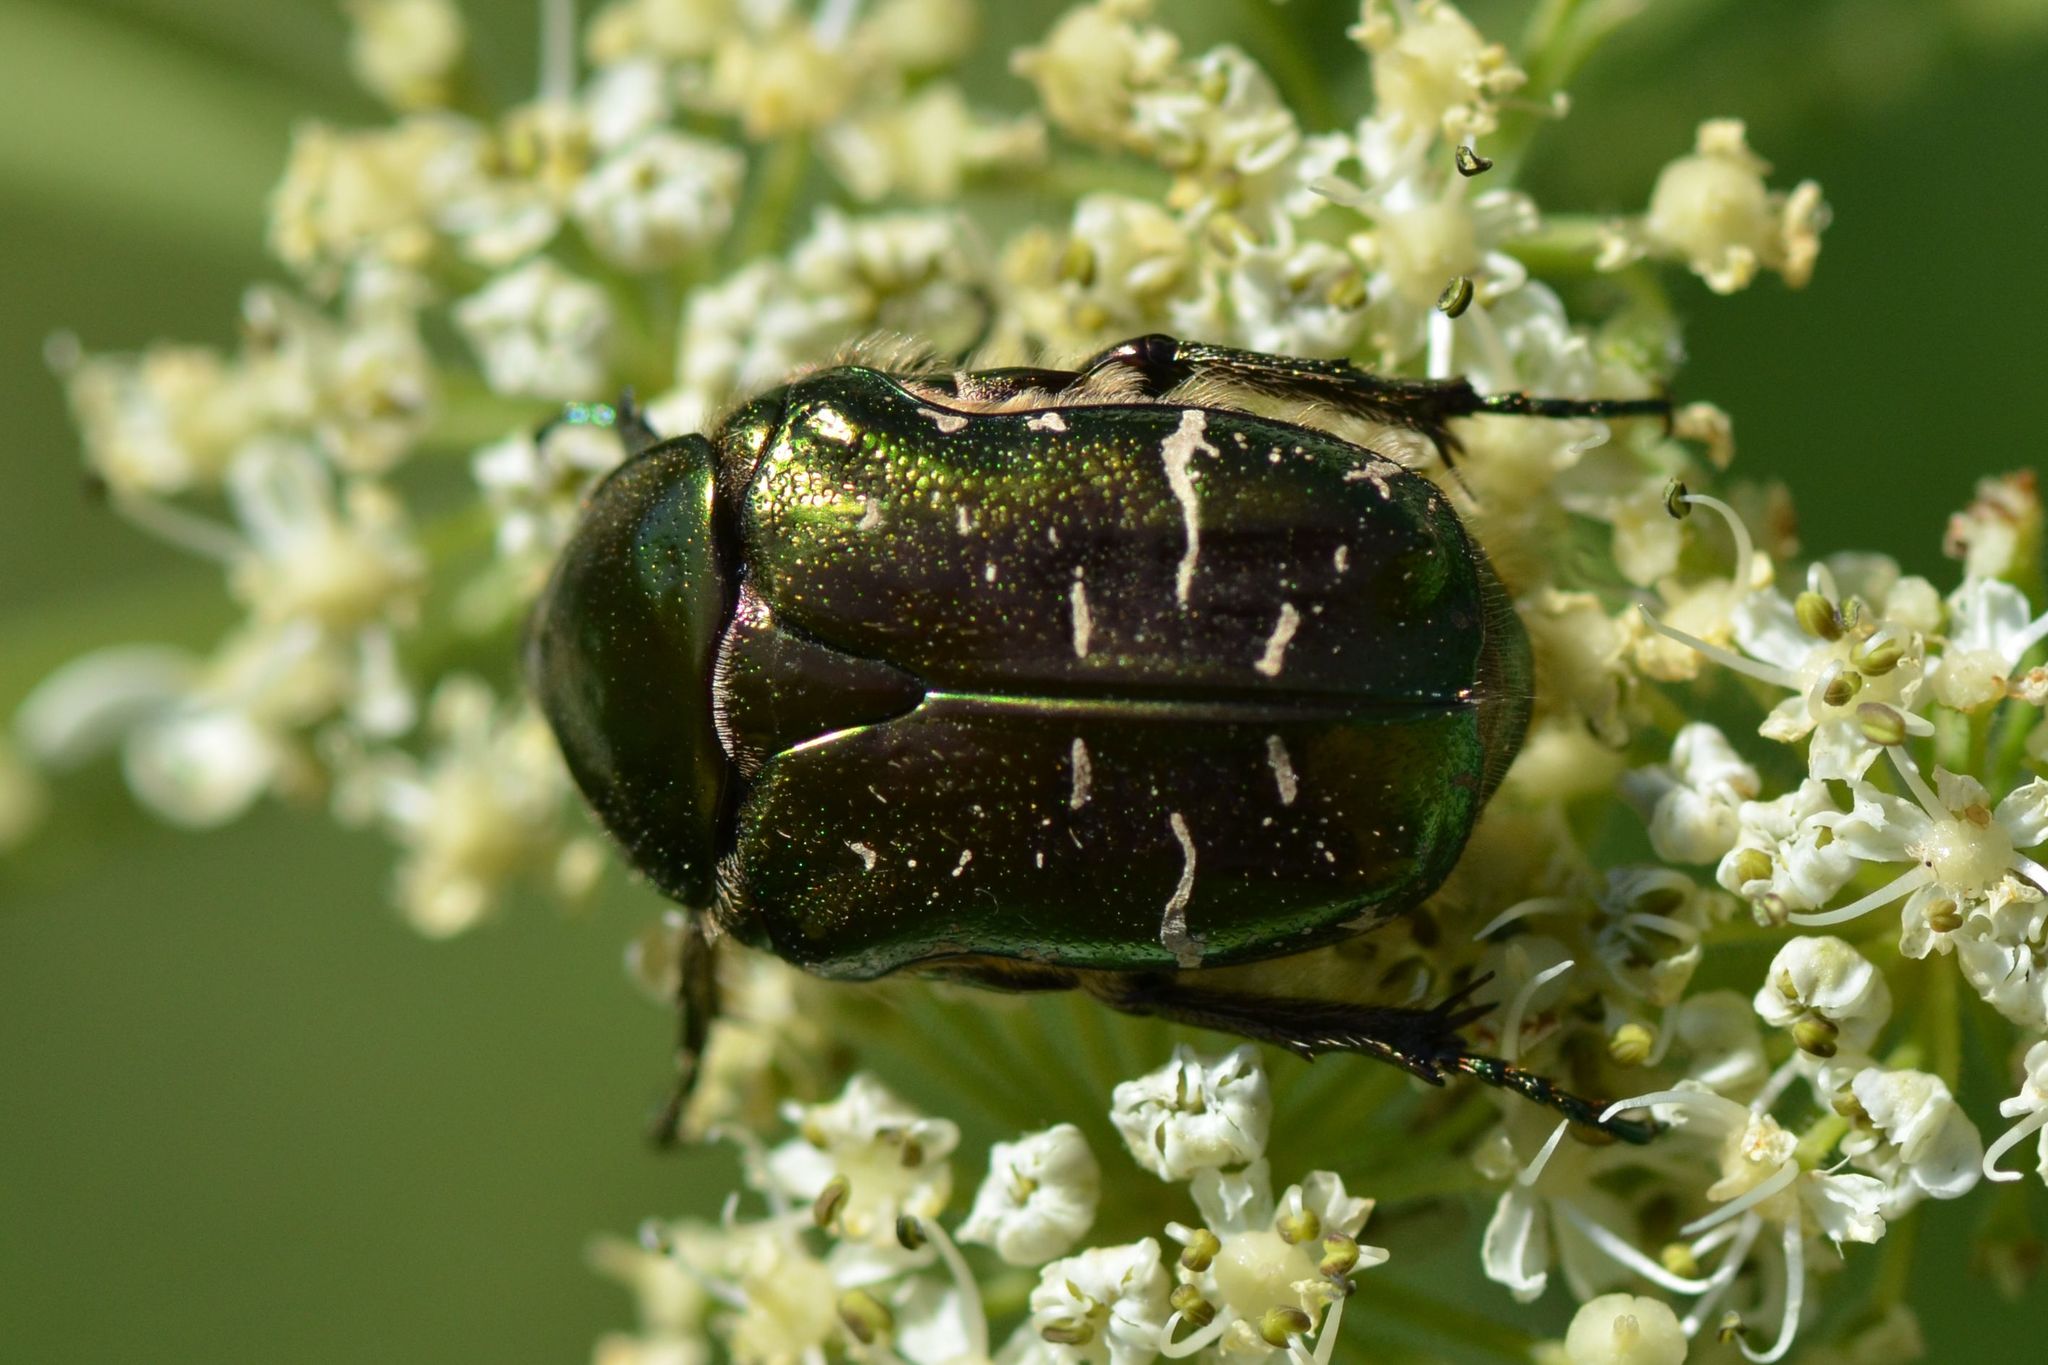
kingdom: Animalia
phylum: Arthropoda
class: Insecta
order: Coleoptera
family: Scarabaeidae
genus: Cetonia
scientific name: Cetonia aurata
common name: Rose chafer
